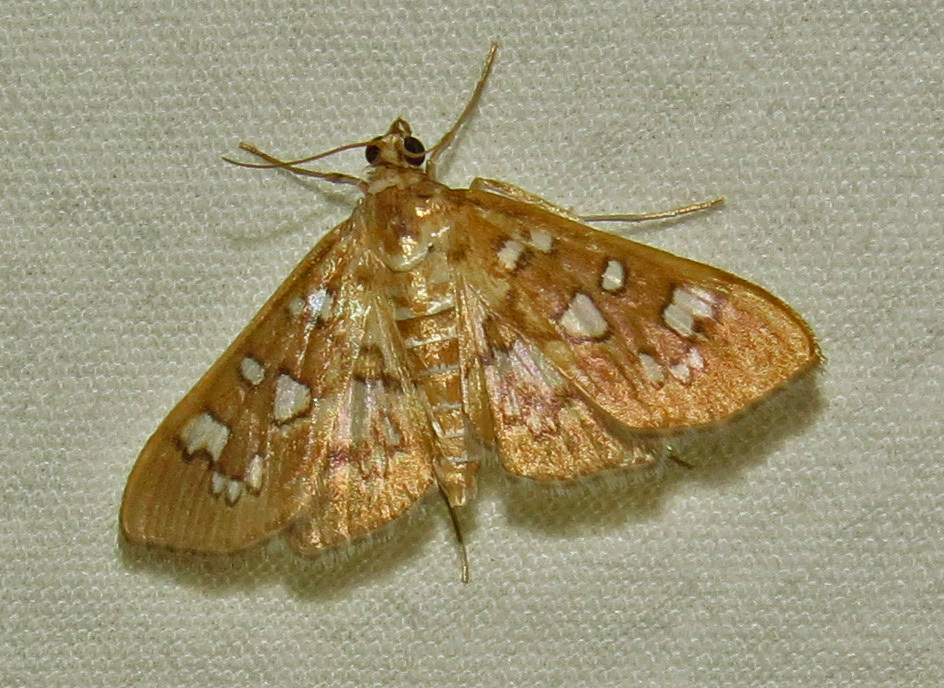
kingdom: Animalia
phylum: Arthropoda
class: Insecta
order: Lepidoptera
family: Crambidae
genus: Samea
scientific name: Samea baccatalis
